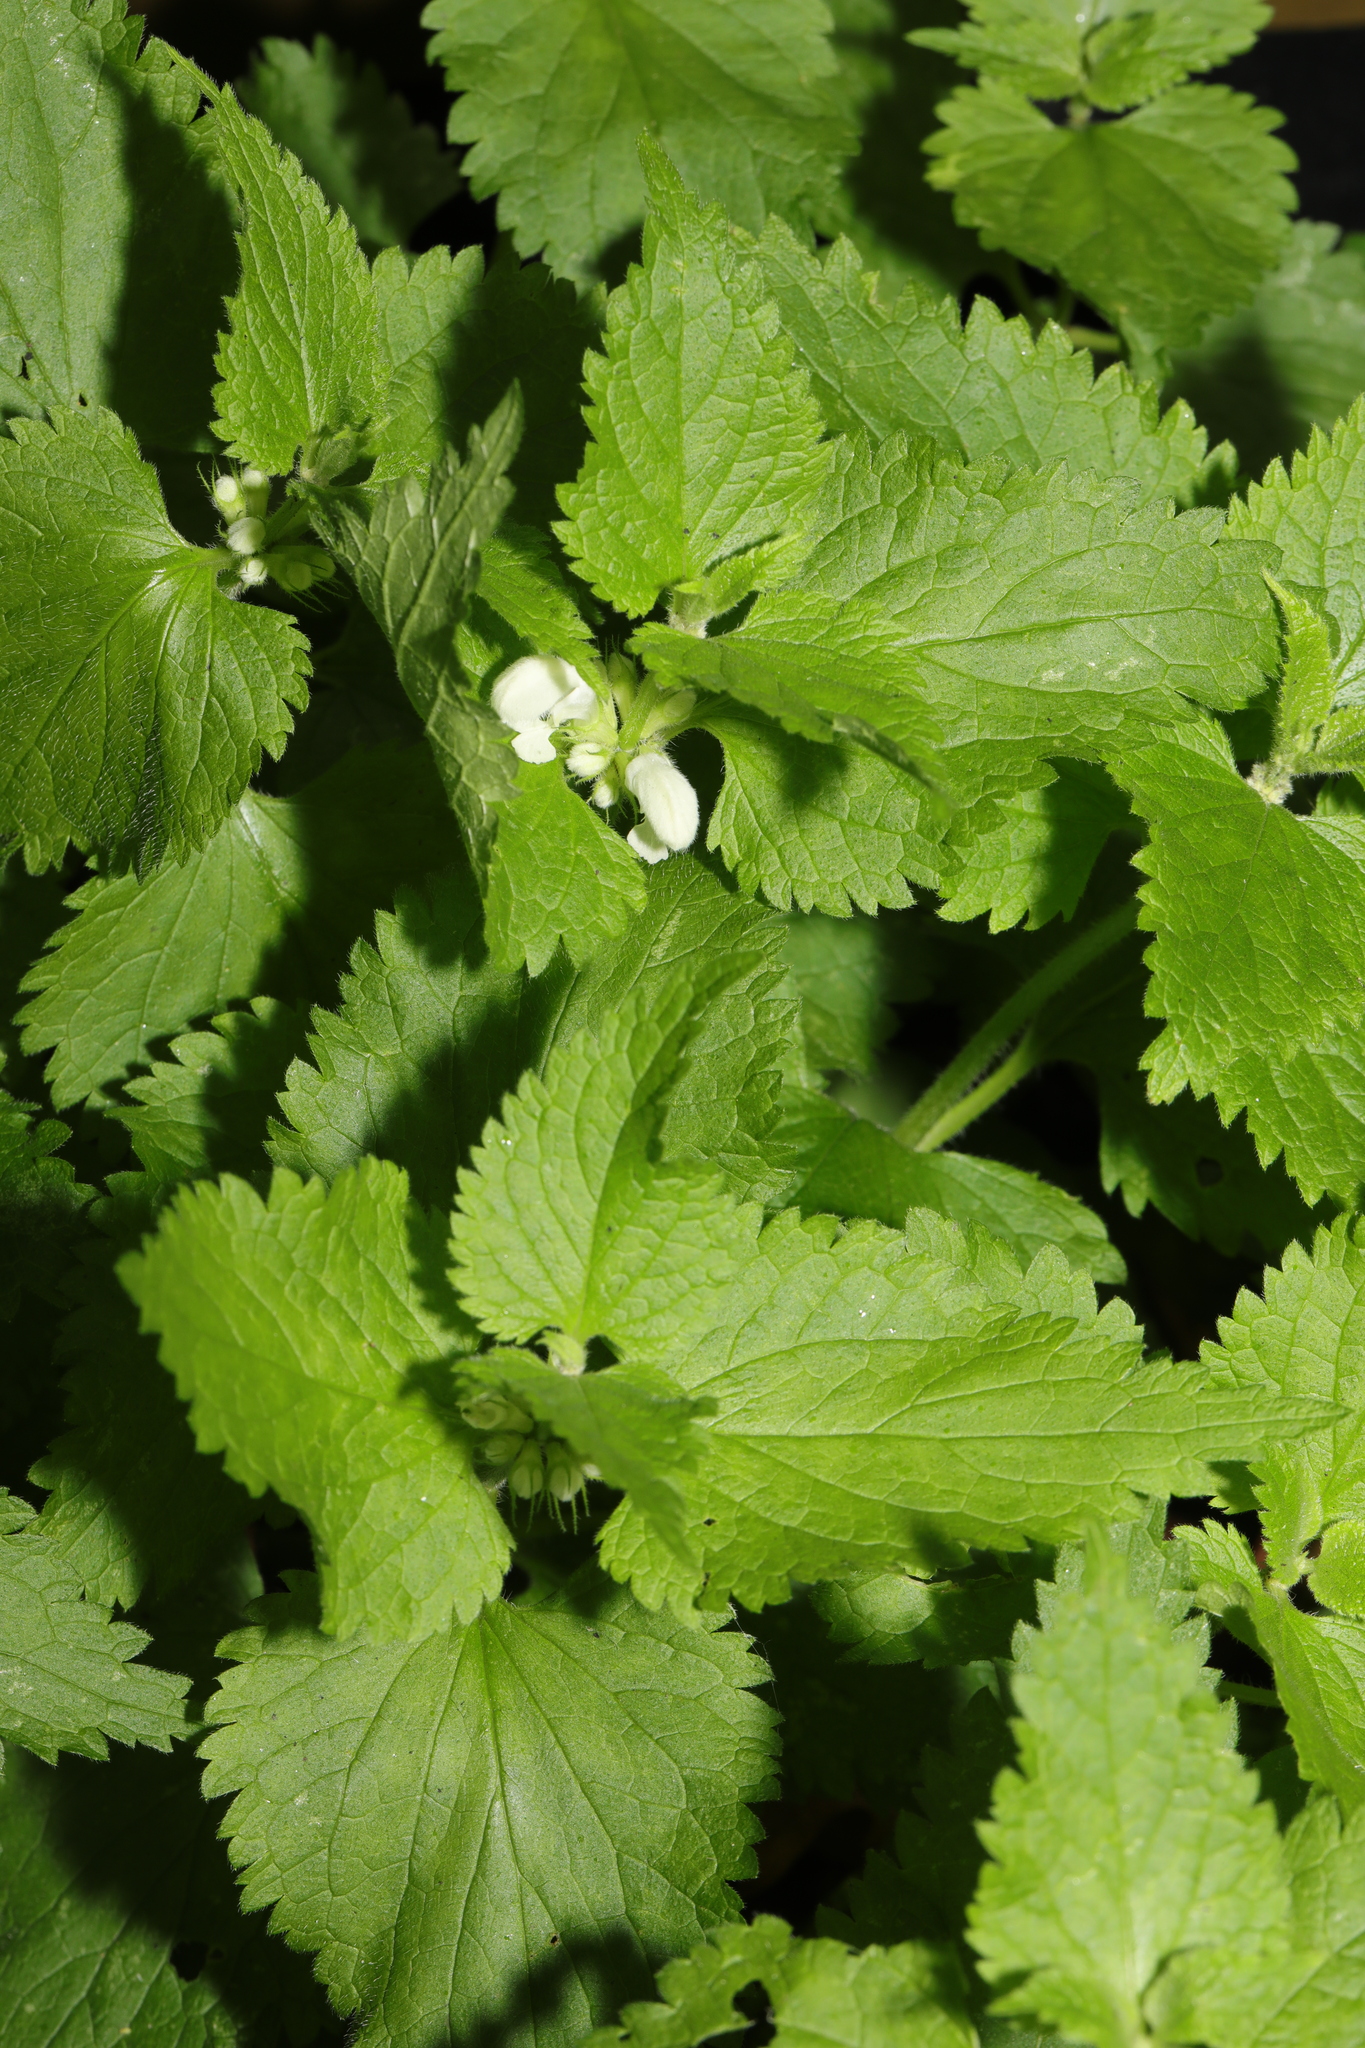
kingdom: Plantae
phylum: Tracheophyta
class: Magnoliopsida
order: Lamiales
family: Lamiaceae
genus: Lamium
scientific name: Lamium album
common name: White dead-nettle
